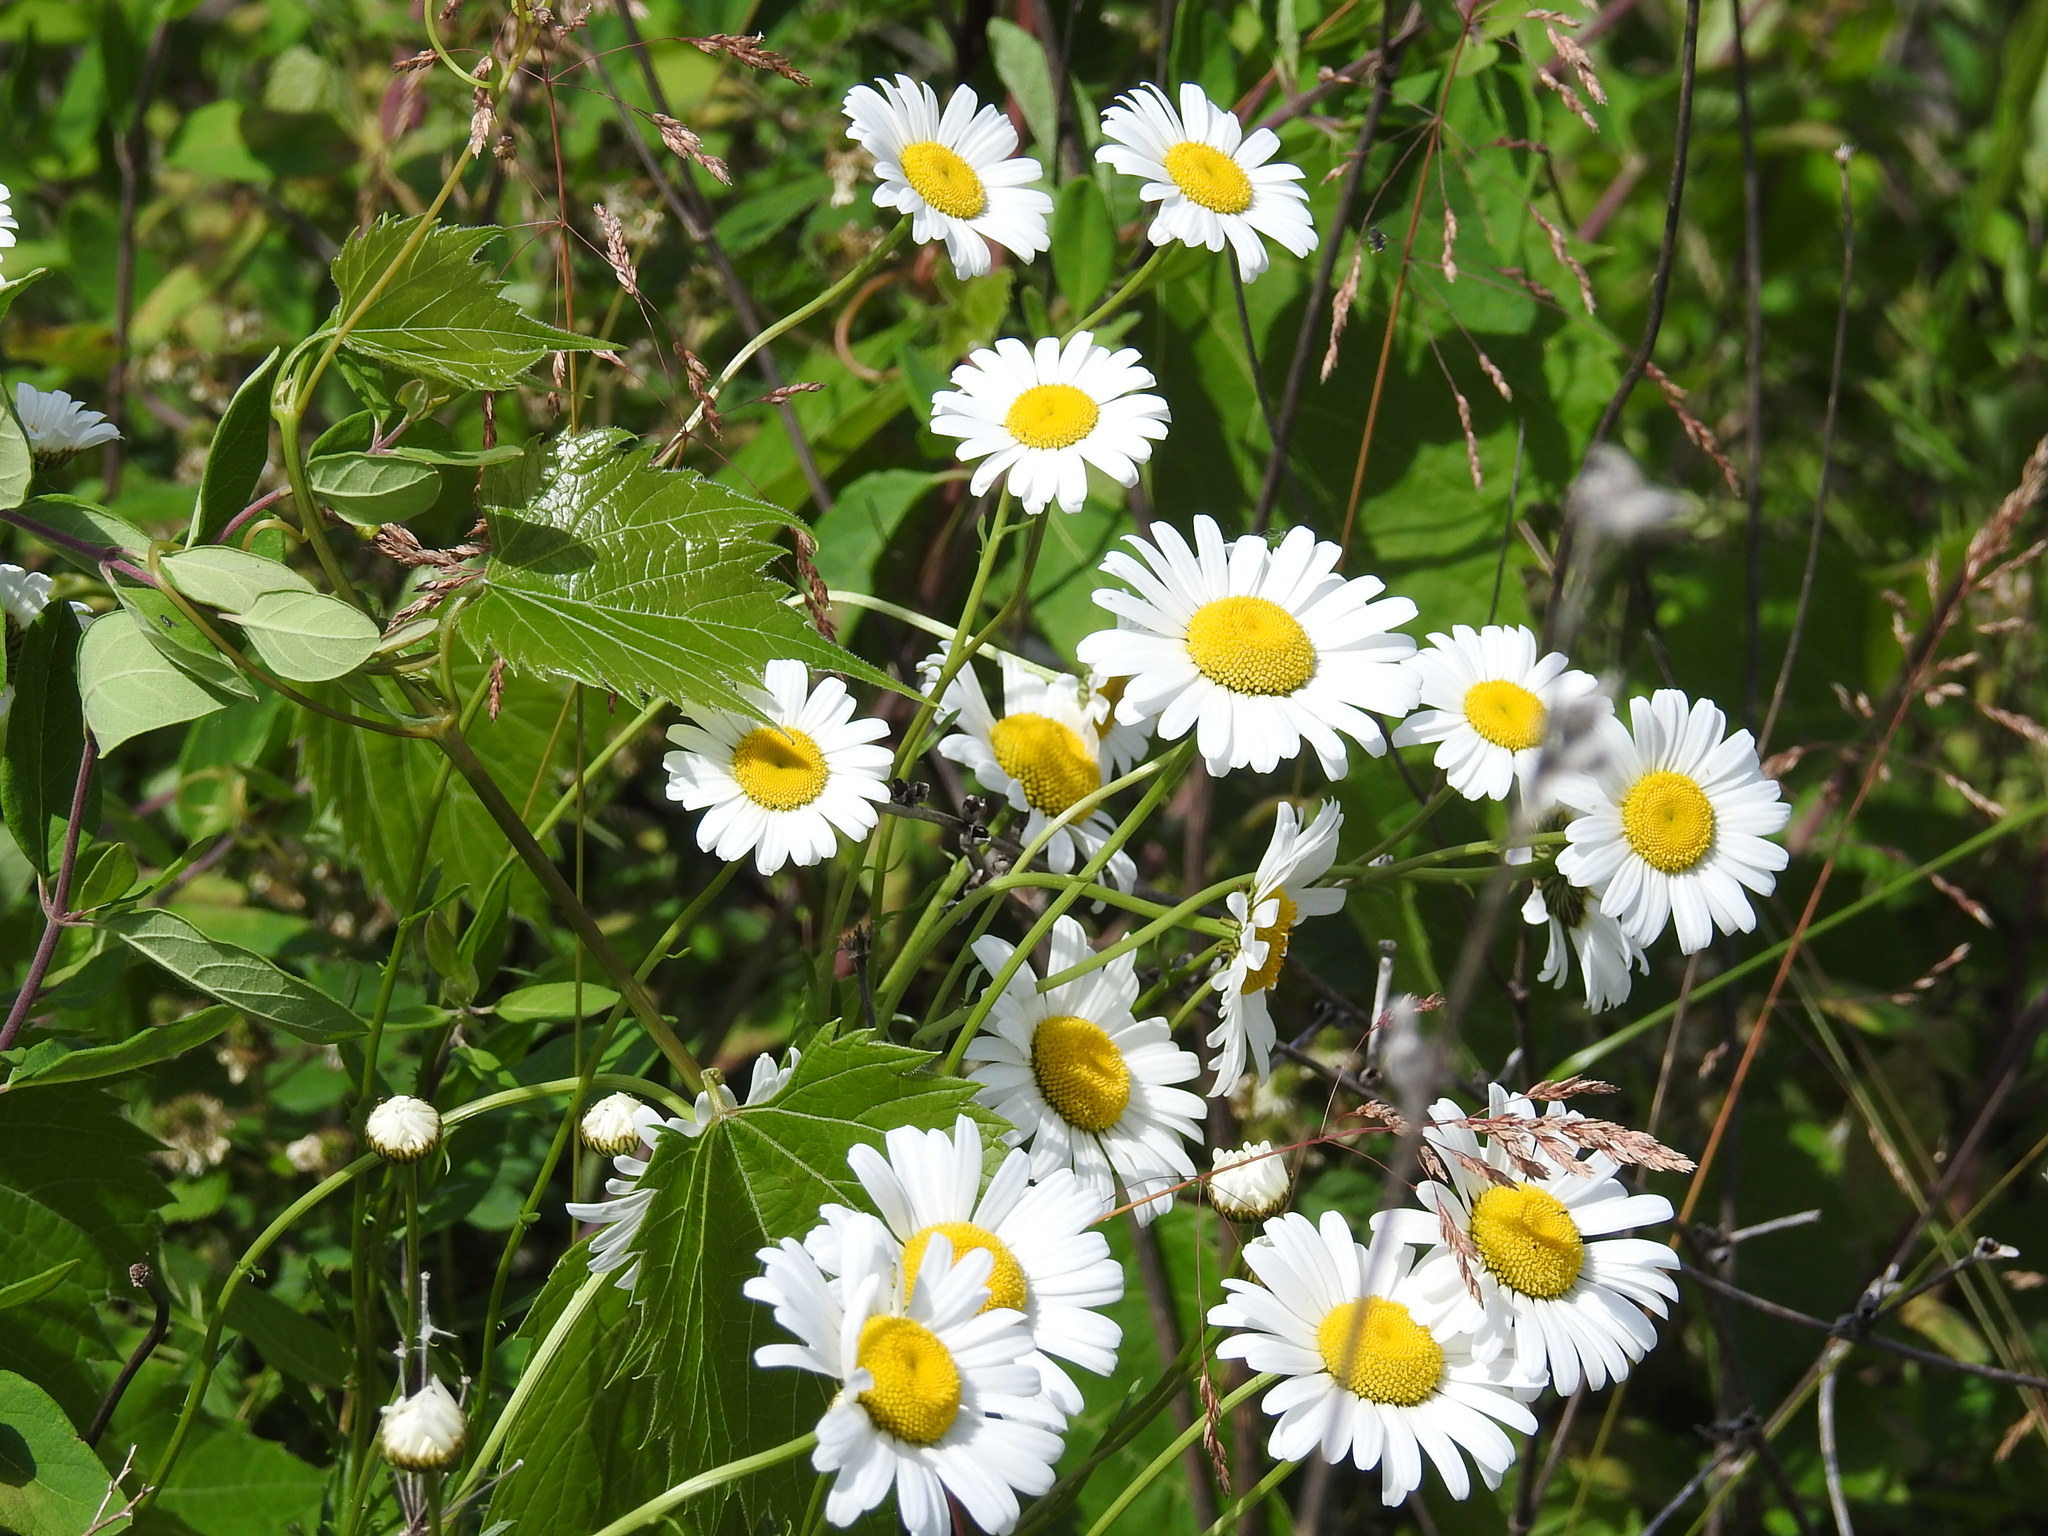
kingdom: Plantae
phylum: Tracheophyta
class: Magnoliopsida
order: Asterales
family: Asteraceae
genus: Leucanthemum
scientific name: Leucanthemum vulgare
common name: Oxeye daisy
